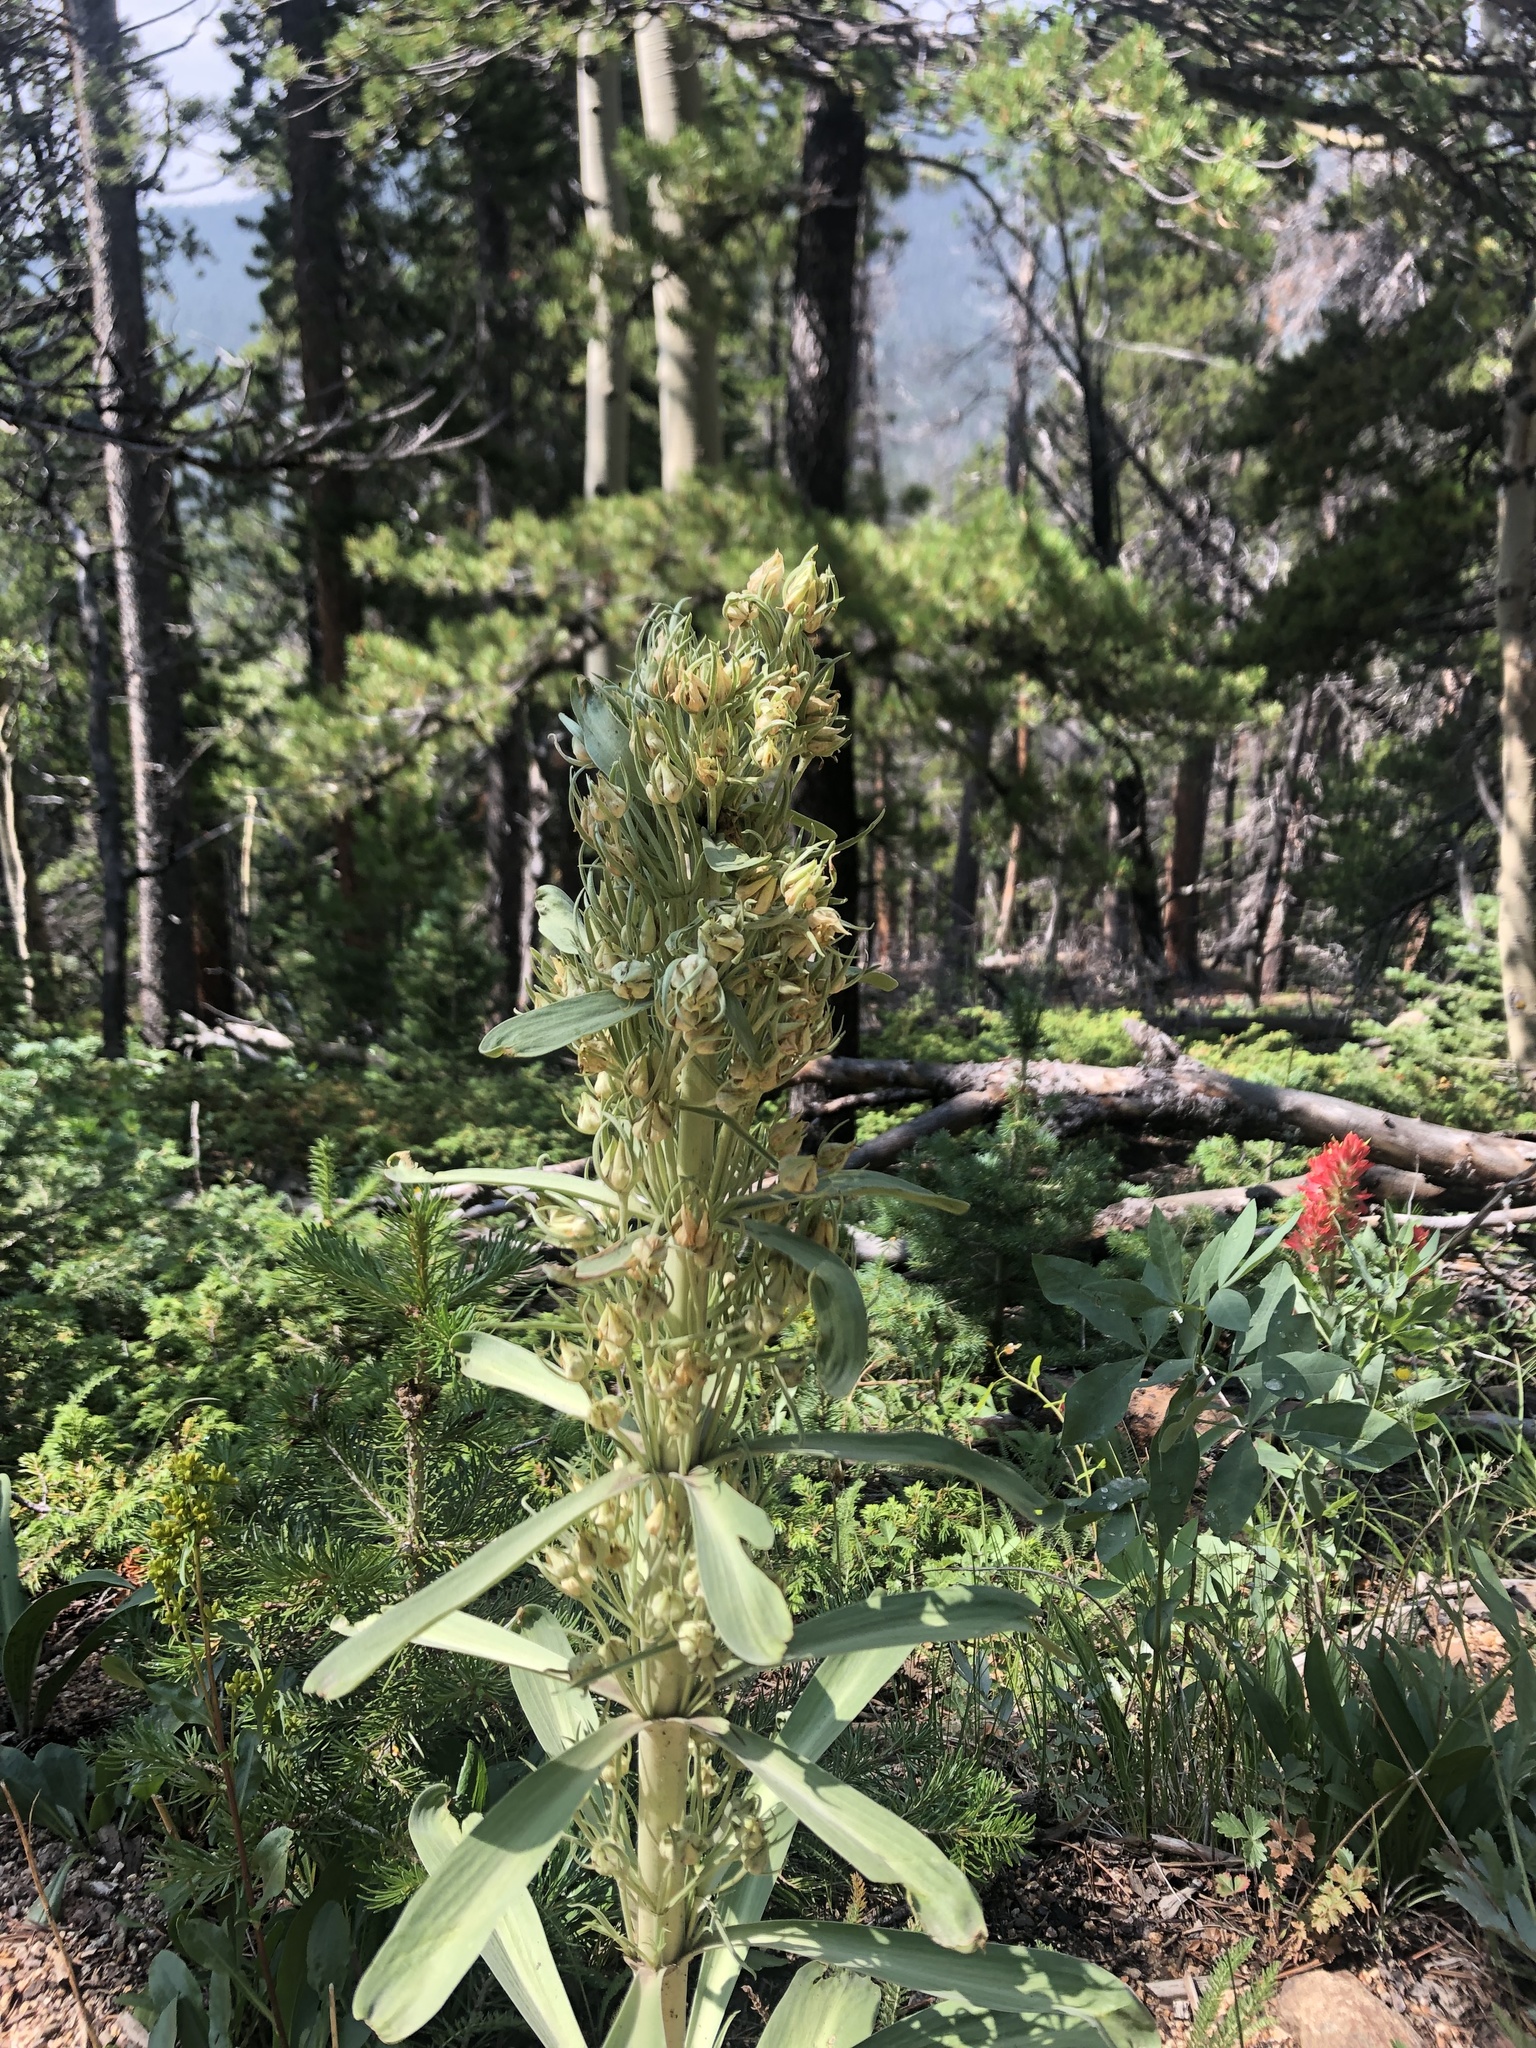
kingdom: Plantae
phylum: Tracheophyta
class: Magnoliopsida
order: Gentianales
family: Gentianaceae
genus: Frasera
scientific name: Frasera speciosa
